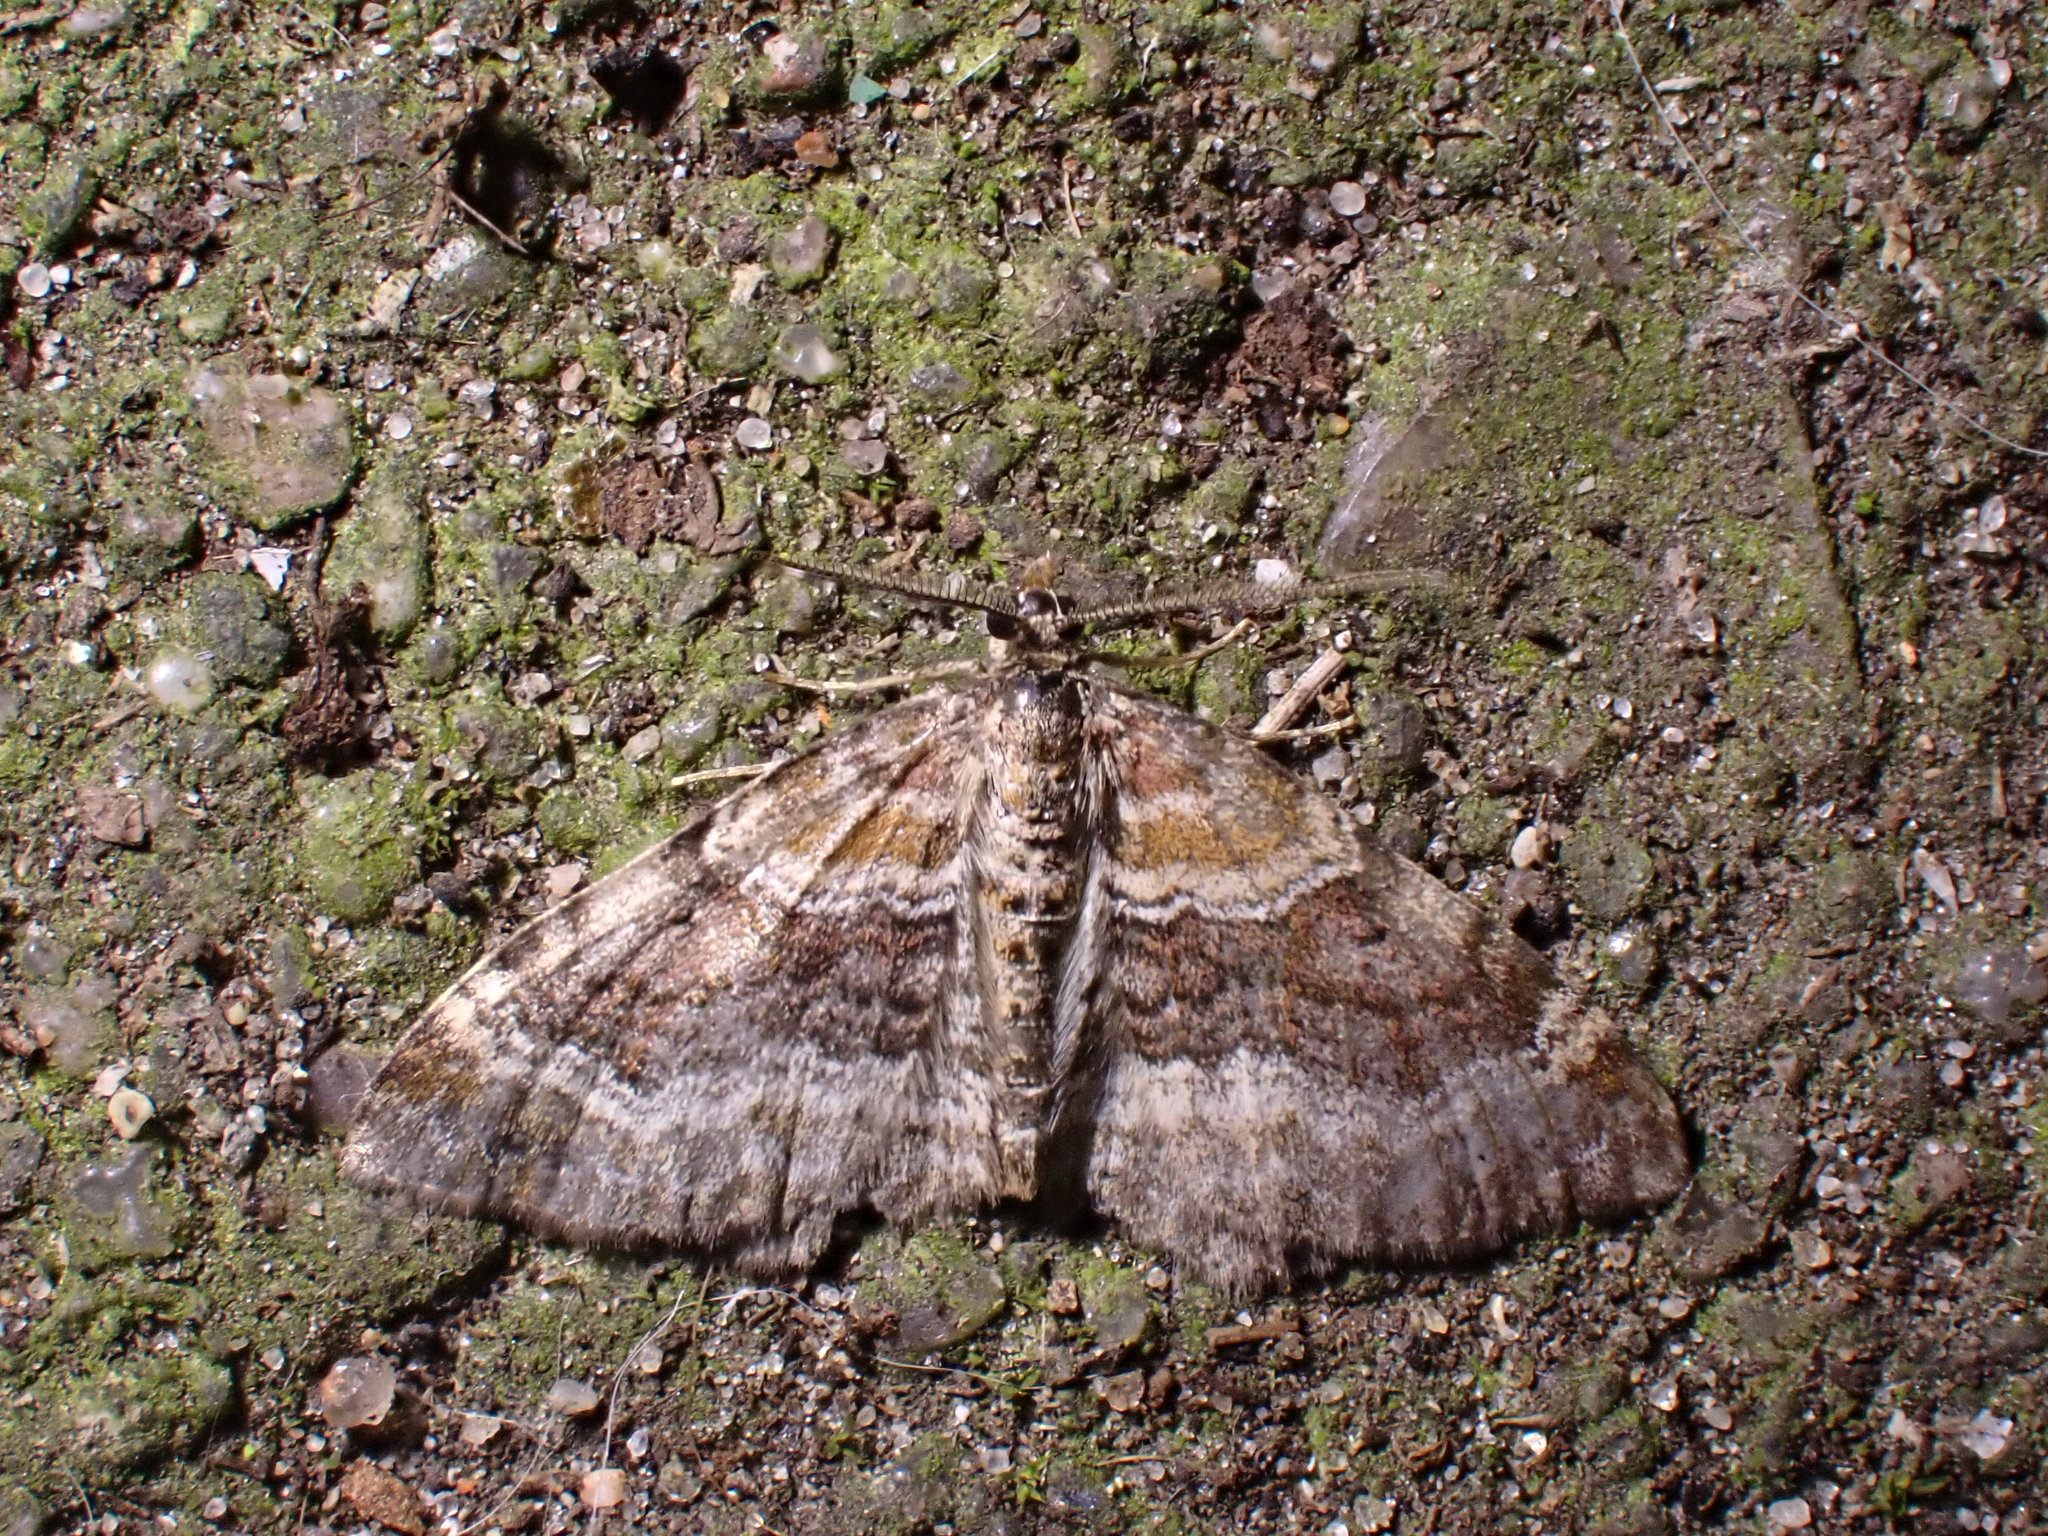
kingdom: Animalia
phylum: Arthropoda
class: Insecta
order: Lepidoptera
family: Geometridae
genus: Xanthorhoe
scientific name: Xanthorhoe spadicearia
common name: Red twin-spot carpet
